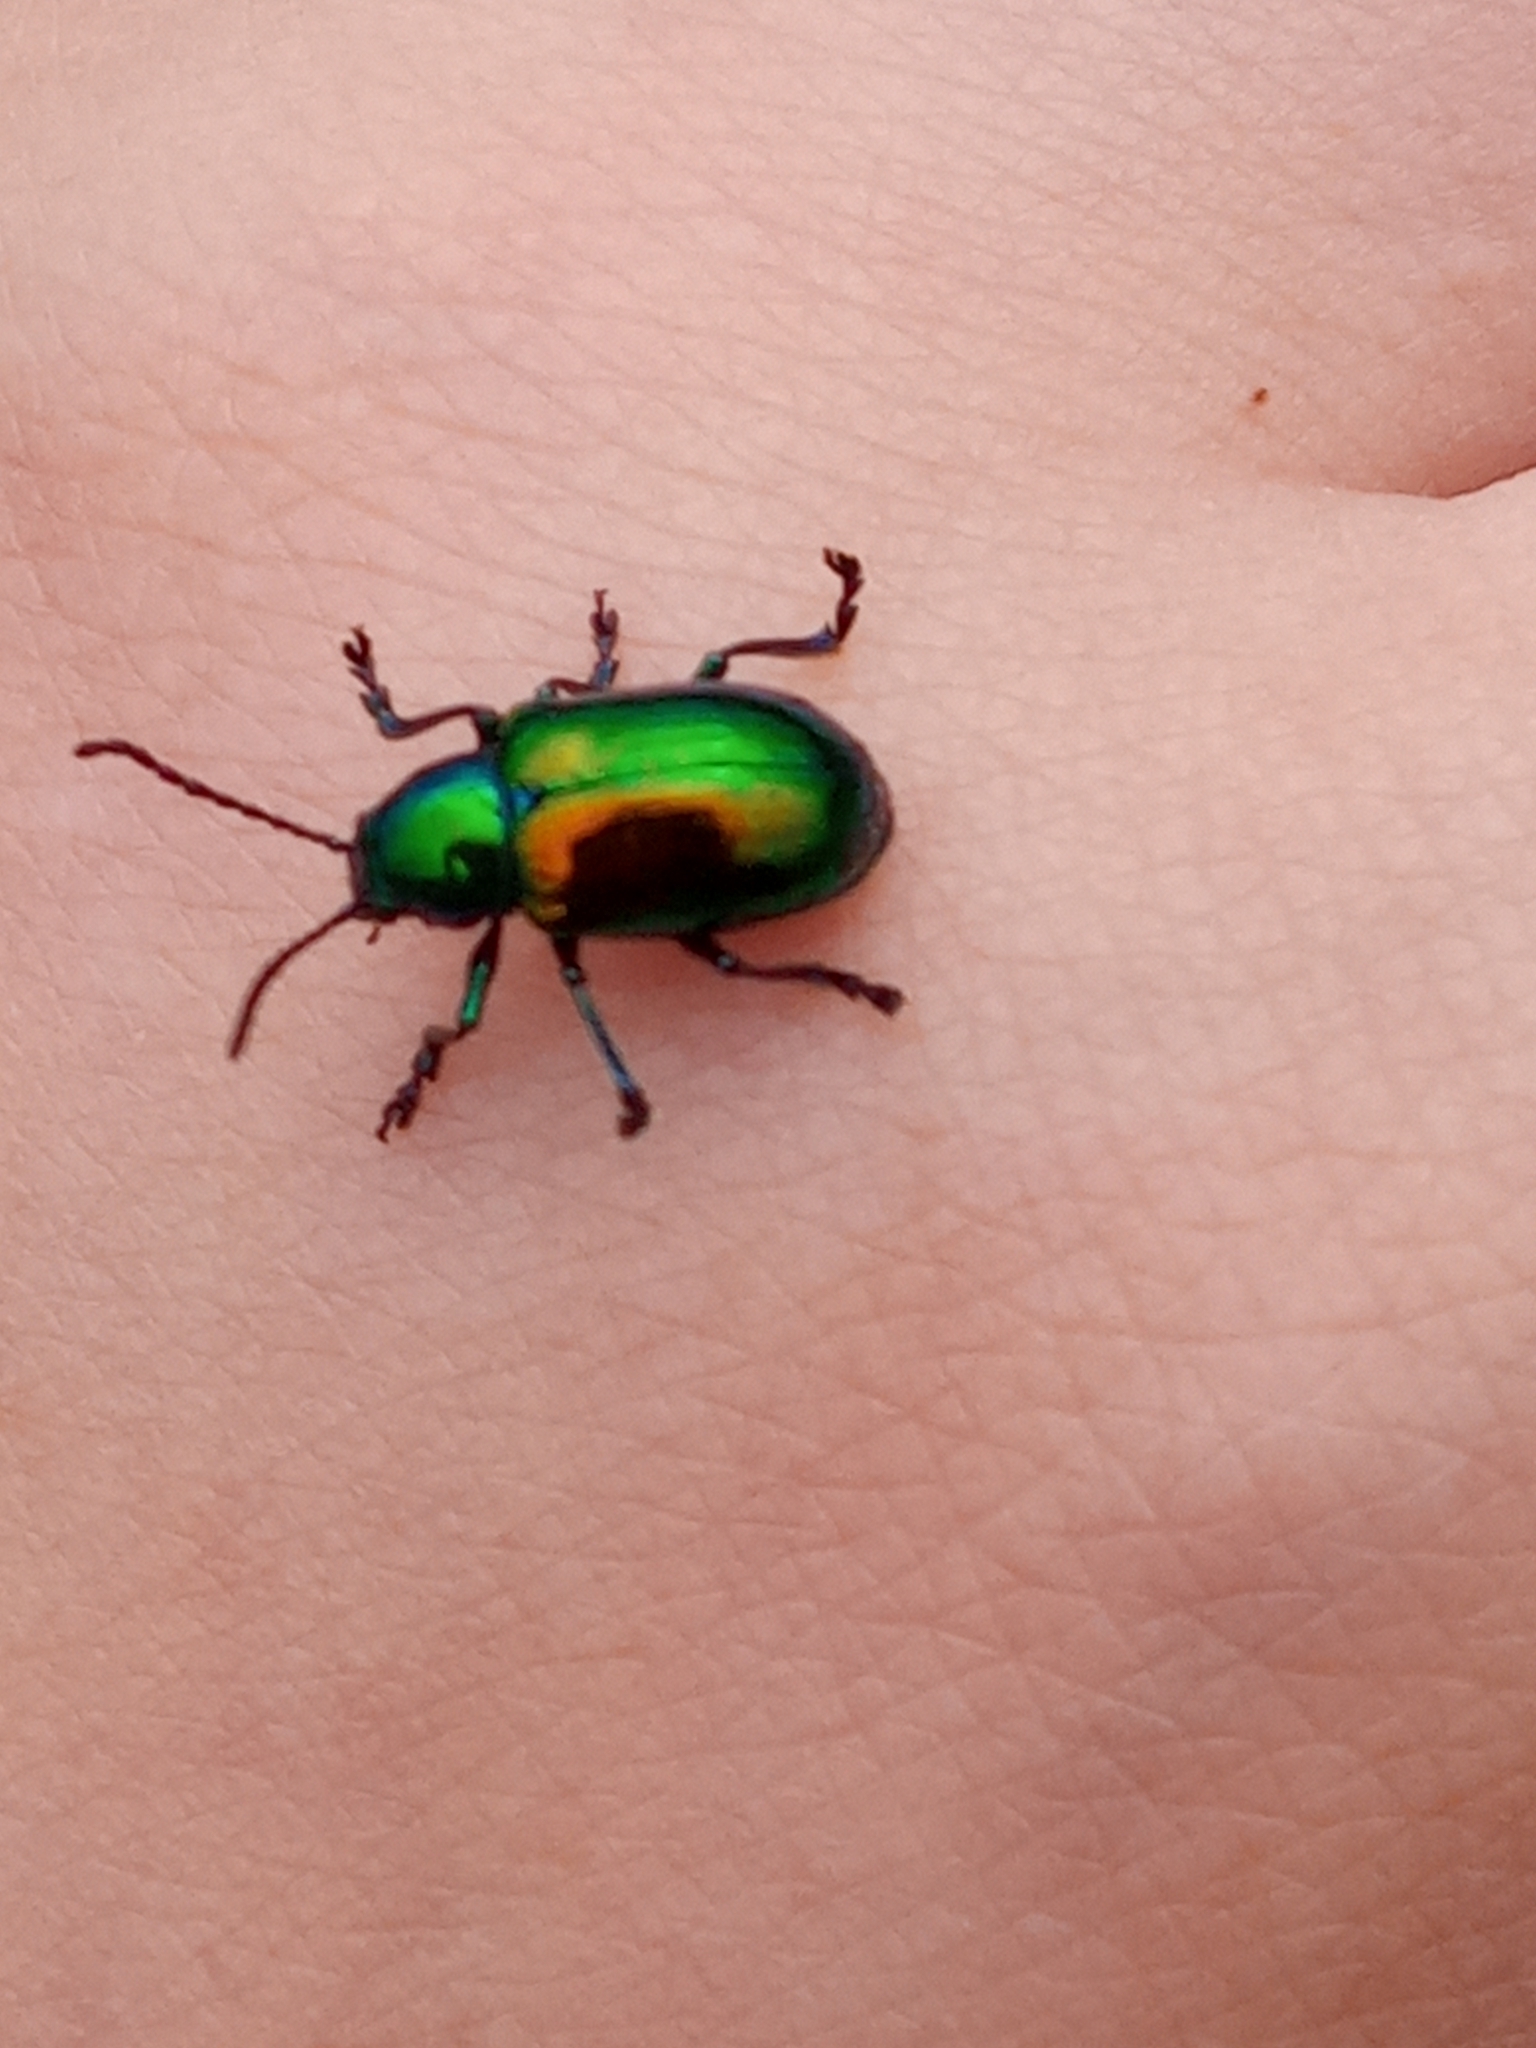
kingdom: Animalia
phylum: Arthropoda
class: Insecta
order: Coleoptera
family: Chrysomelidae
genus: Chrysochus
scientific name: Chrysochus auratus
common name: Dogbane leaf beetle
